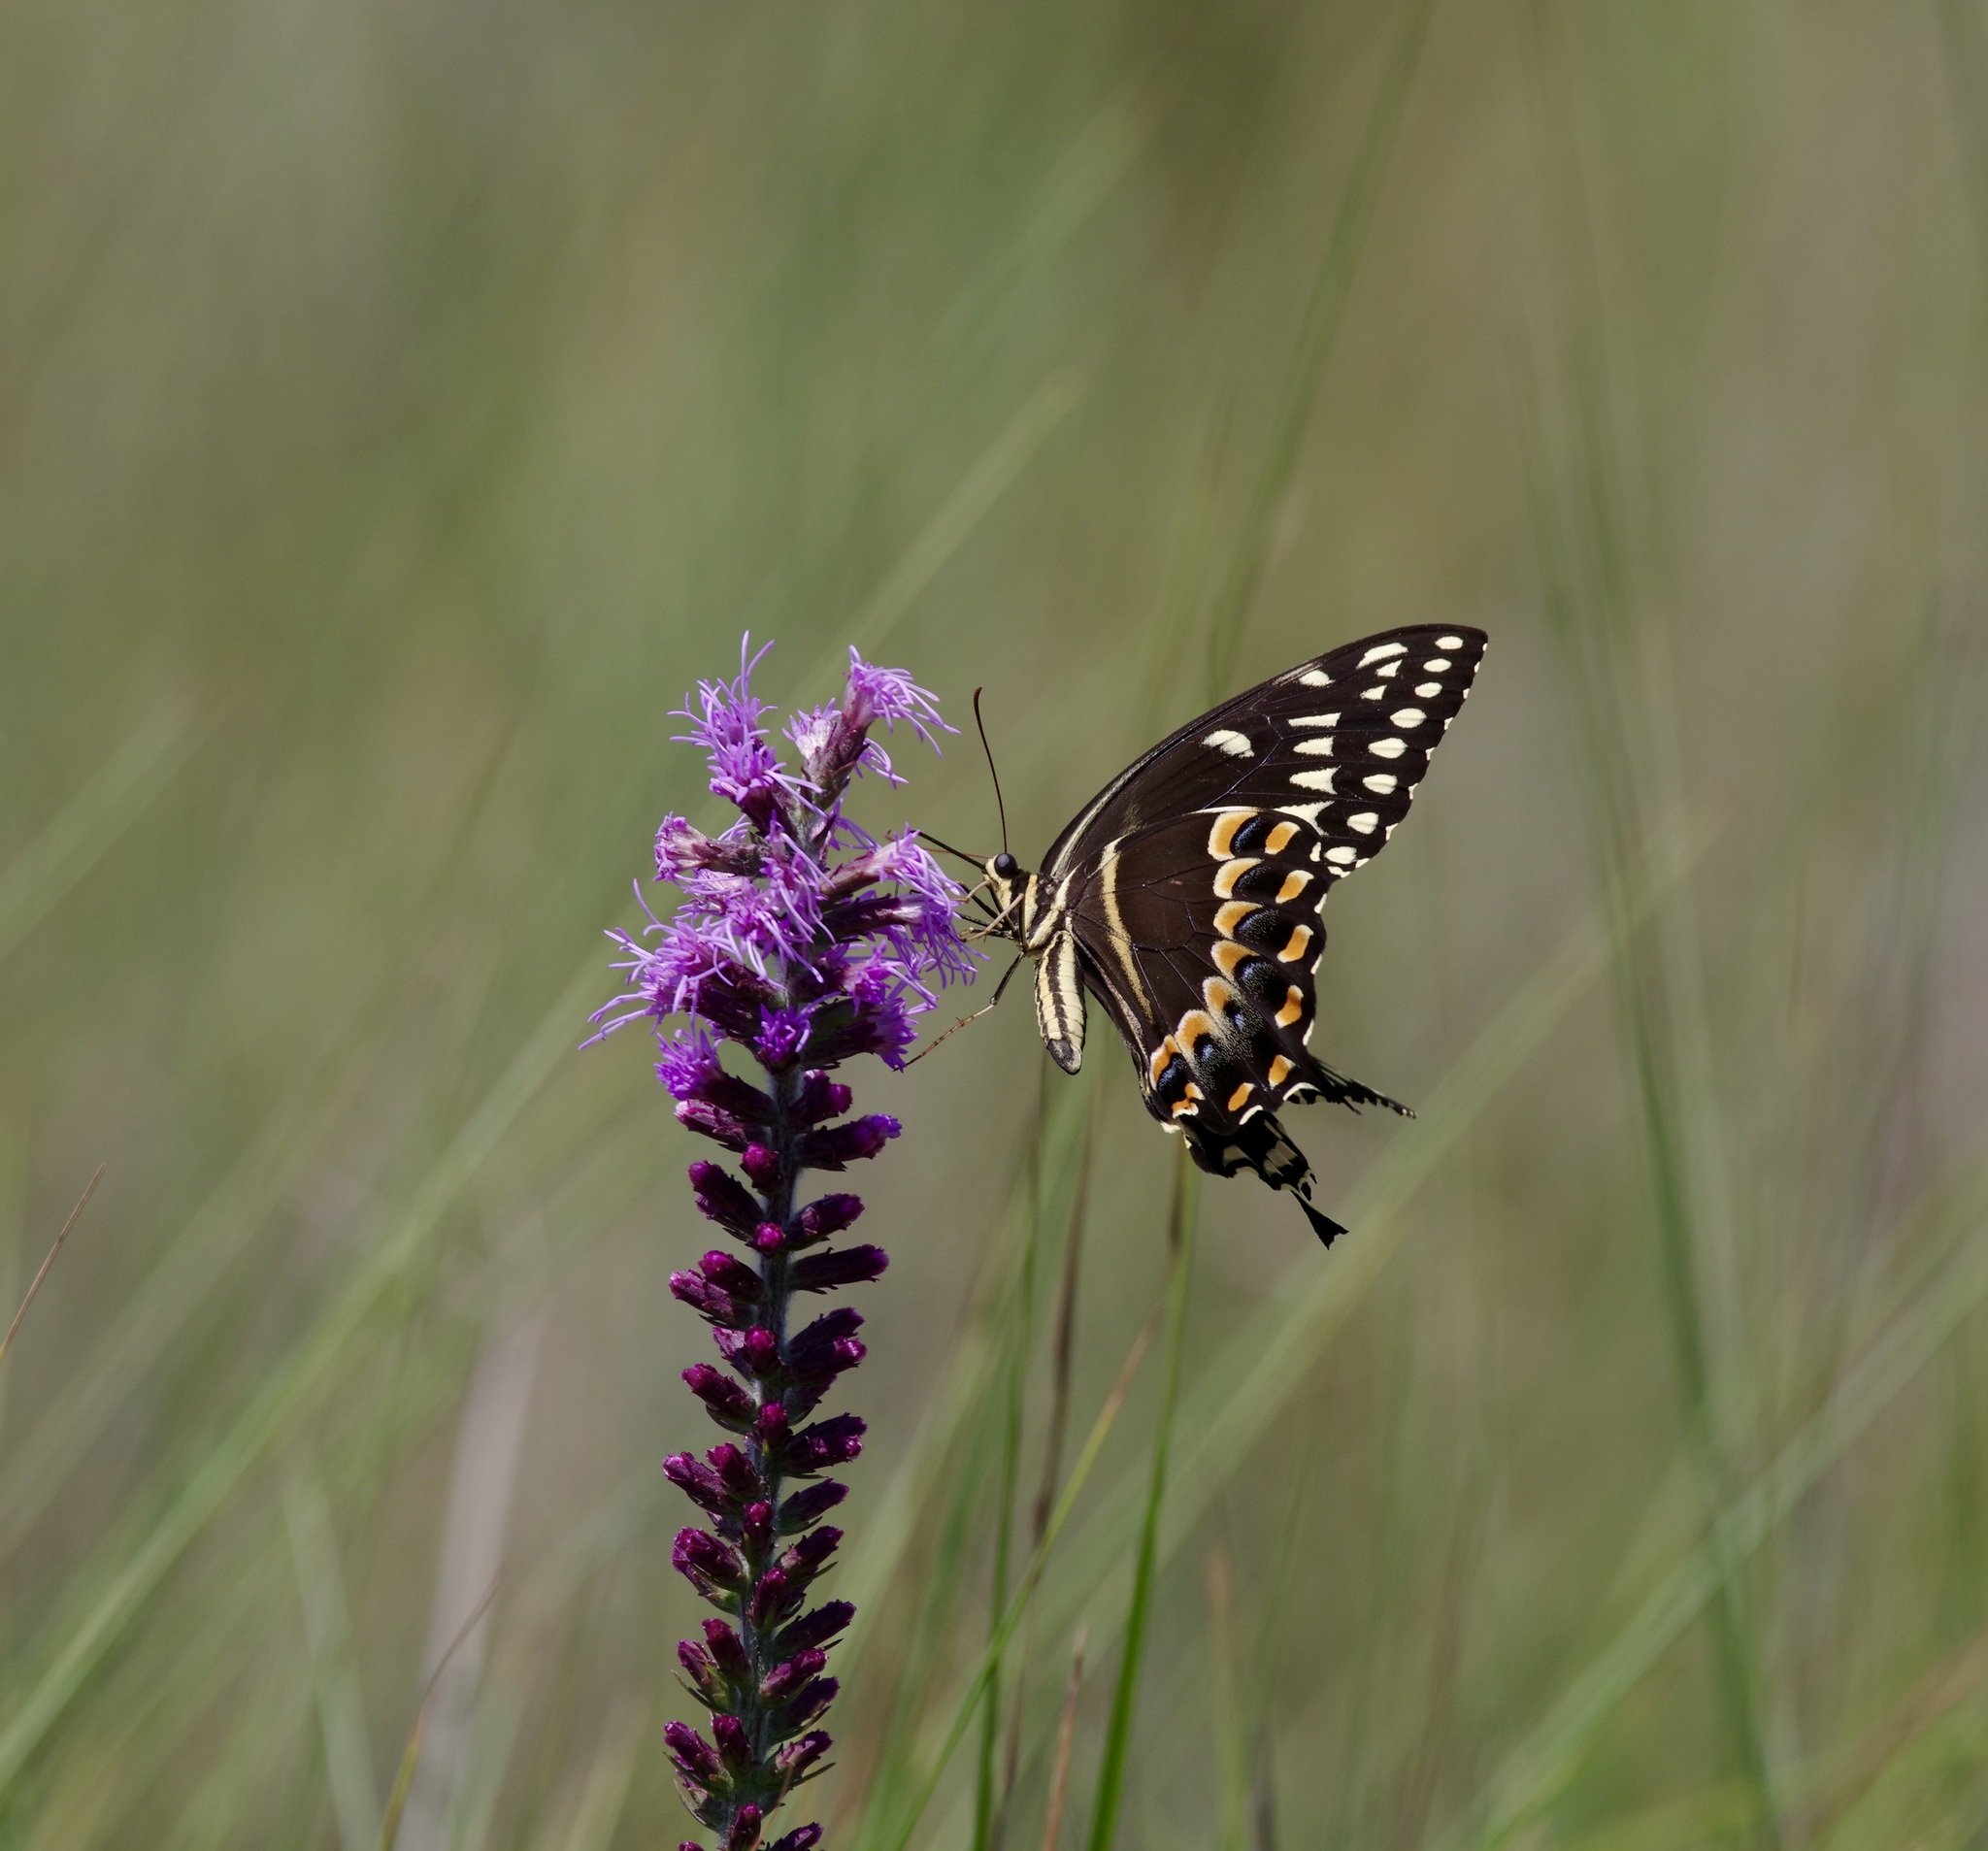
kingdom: Animalia
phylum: Arthropoda
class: Insecta
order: Lepidoptera
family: Papilionidae
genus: Papilio
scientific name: Papilio palamedes
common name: Palamedes swallowtail
